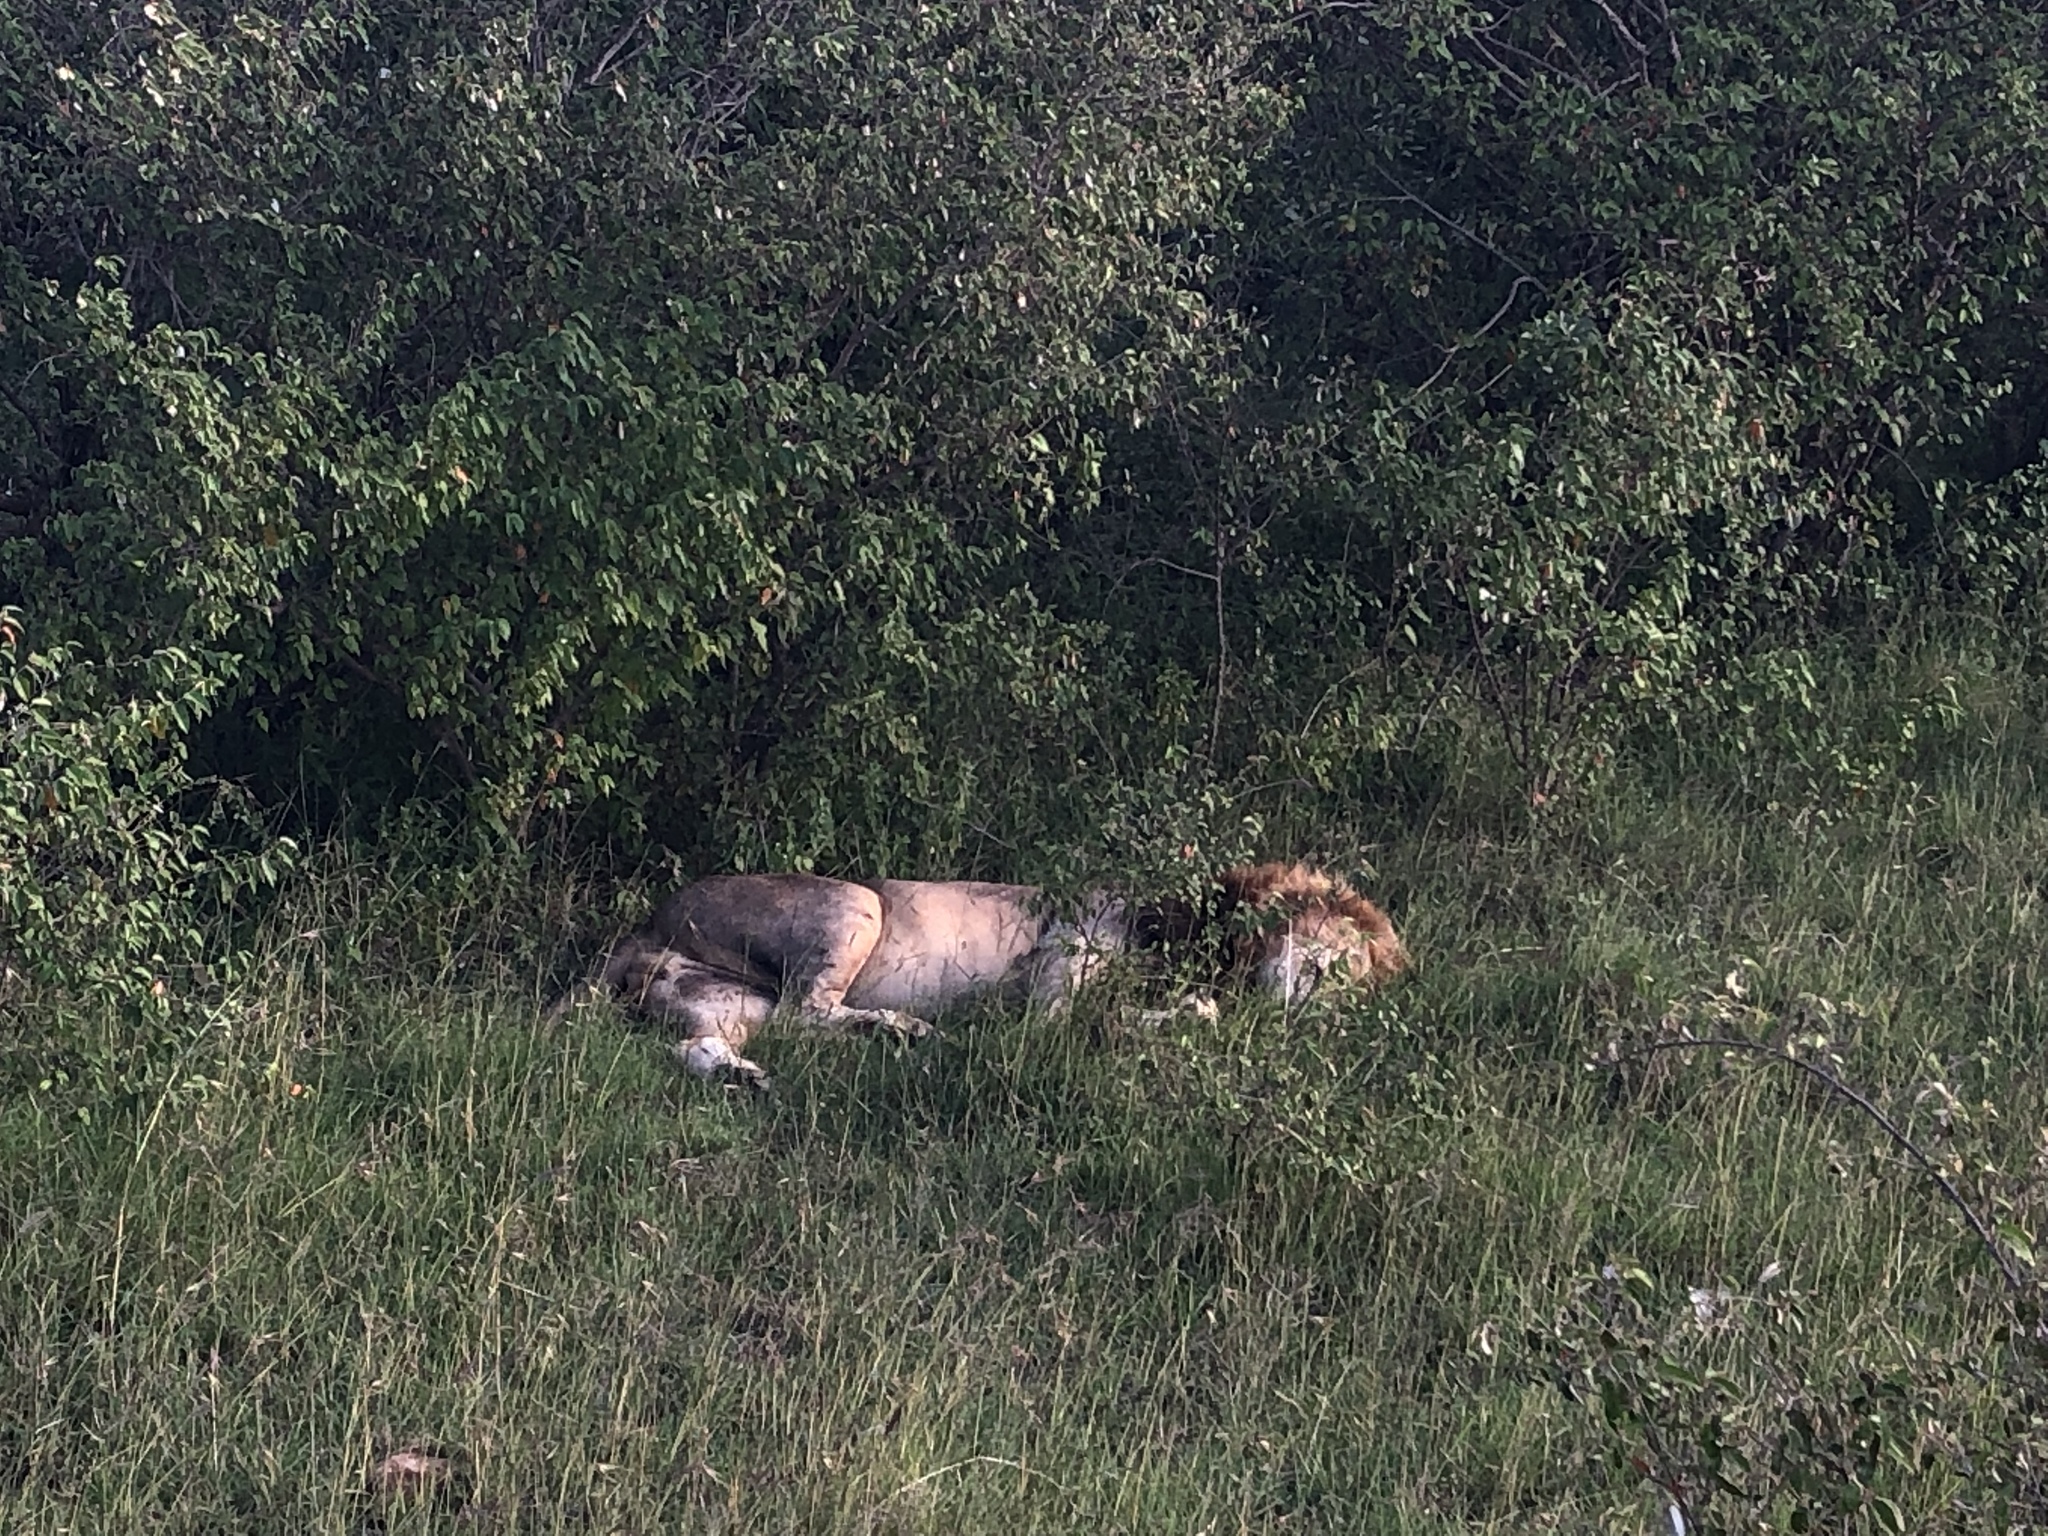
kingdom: Animalia
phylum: Chordata
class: Mammalia
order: Carnivora
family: Felidae
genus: Panthera
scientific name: Panthera leo
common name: Lion
